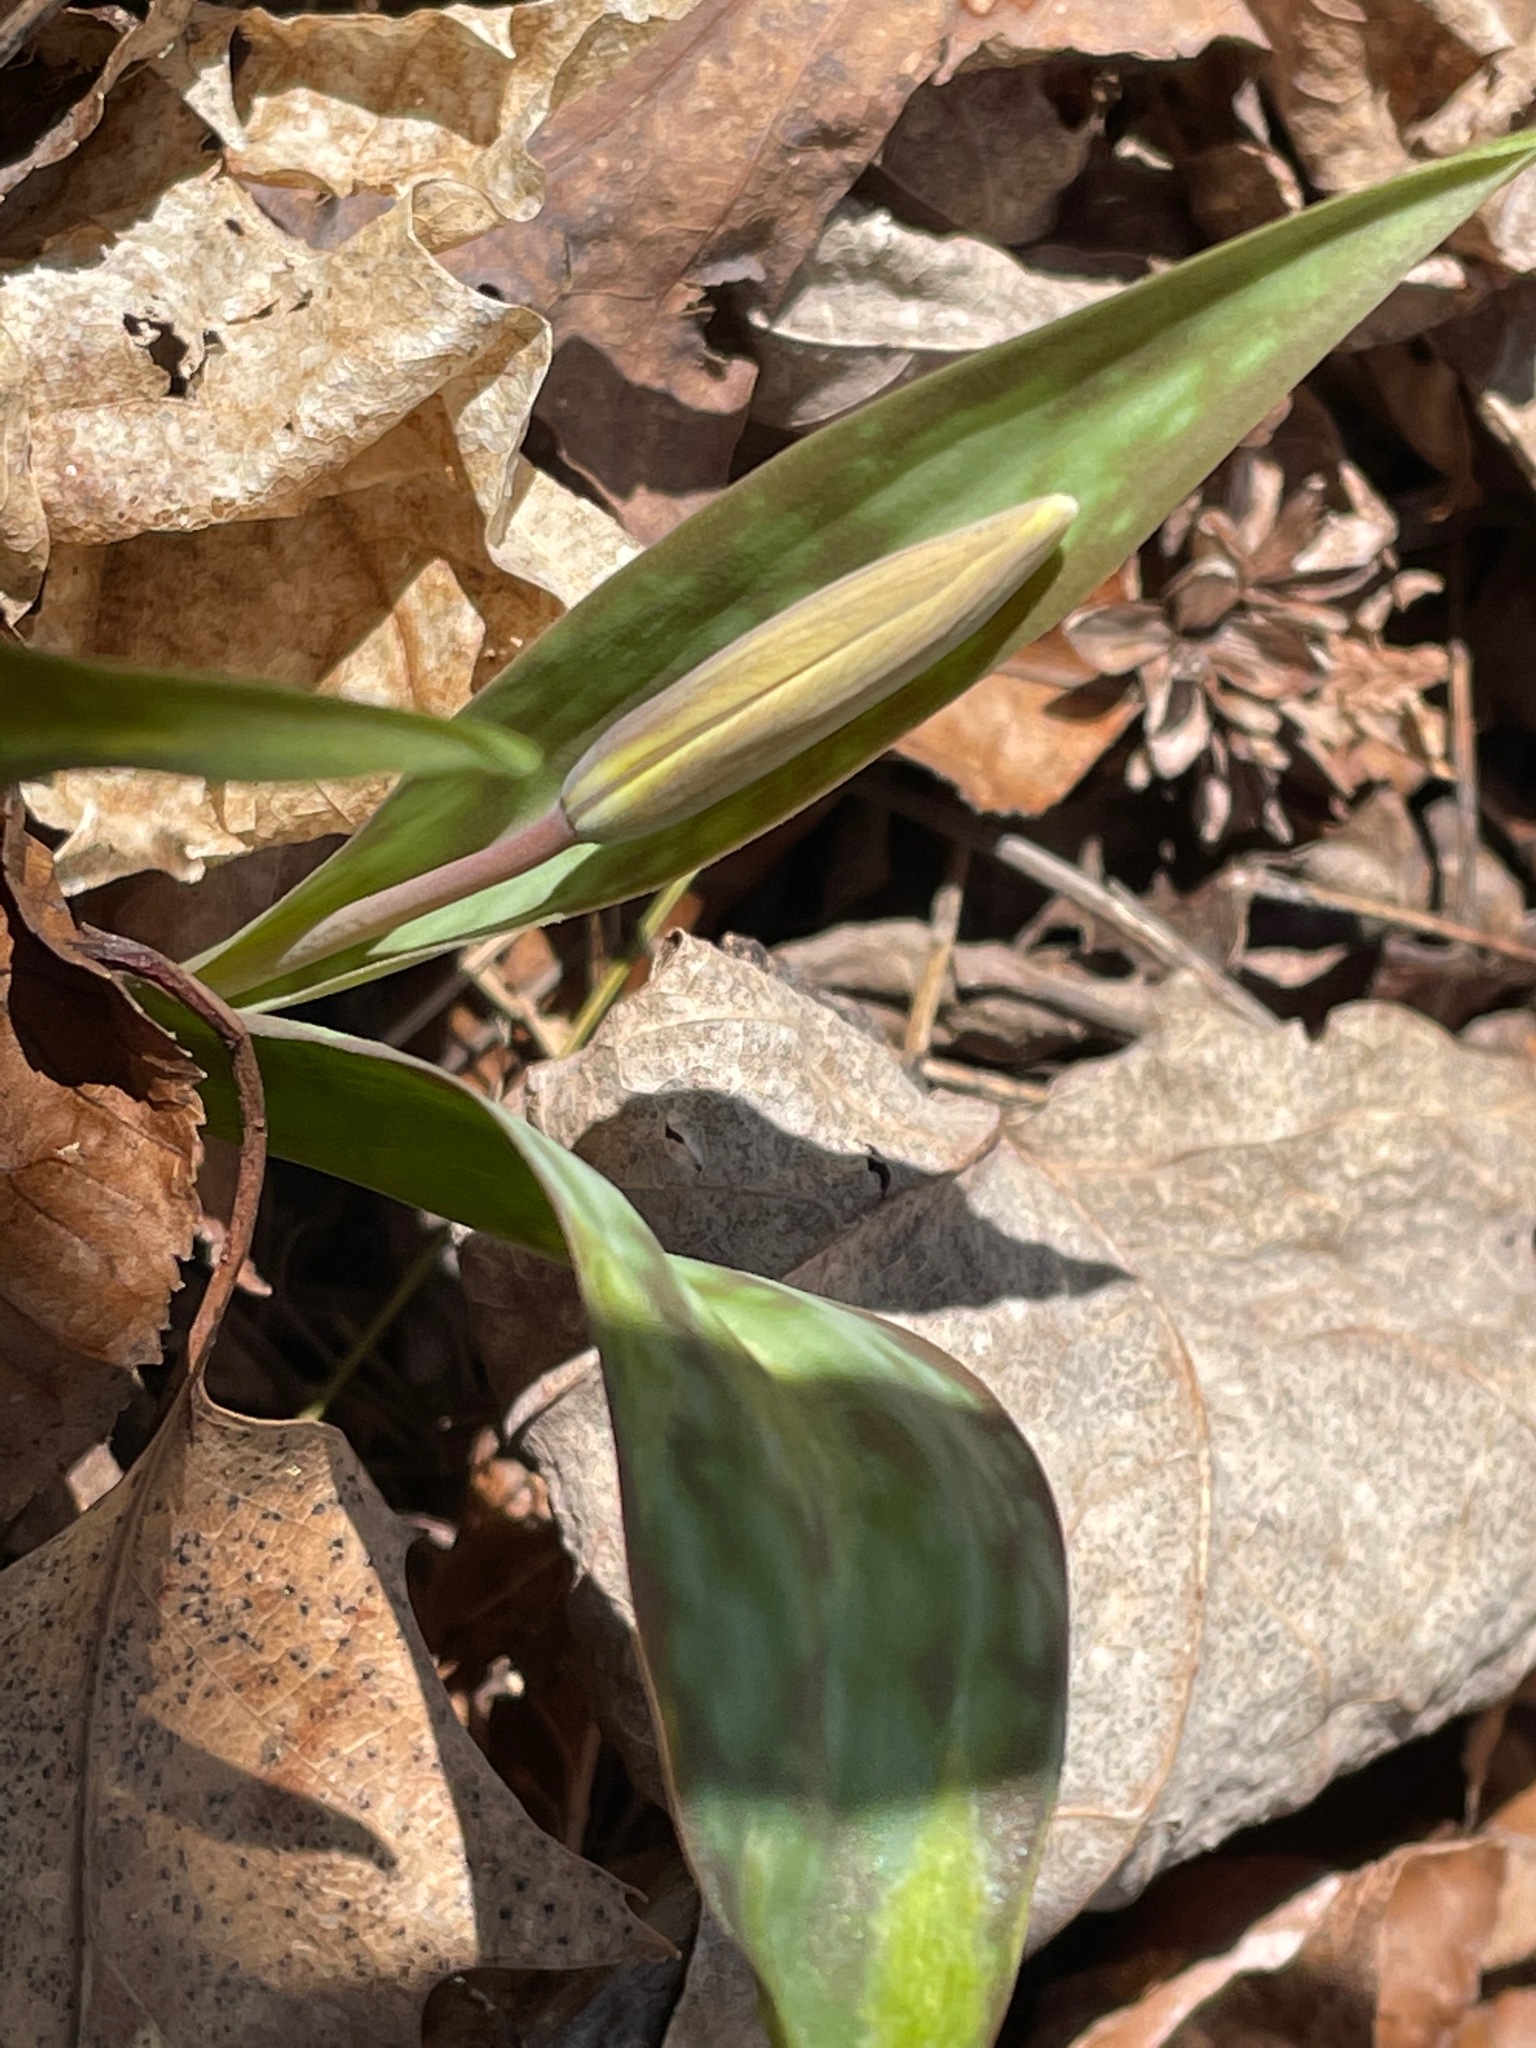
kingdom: Plantae
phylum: Tracheophyta
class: Liliopsida
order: Liliales
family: Liliaceae
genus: Erythronium
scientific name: Erythronium americanum
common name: Yellow adder's-tongue
